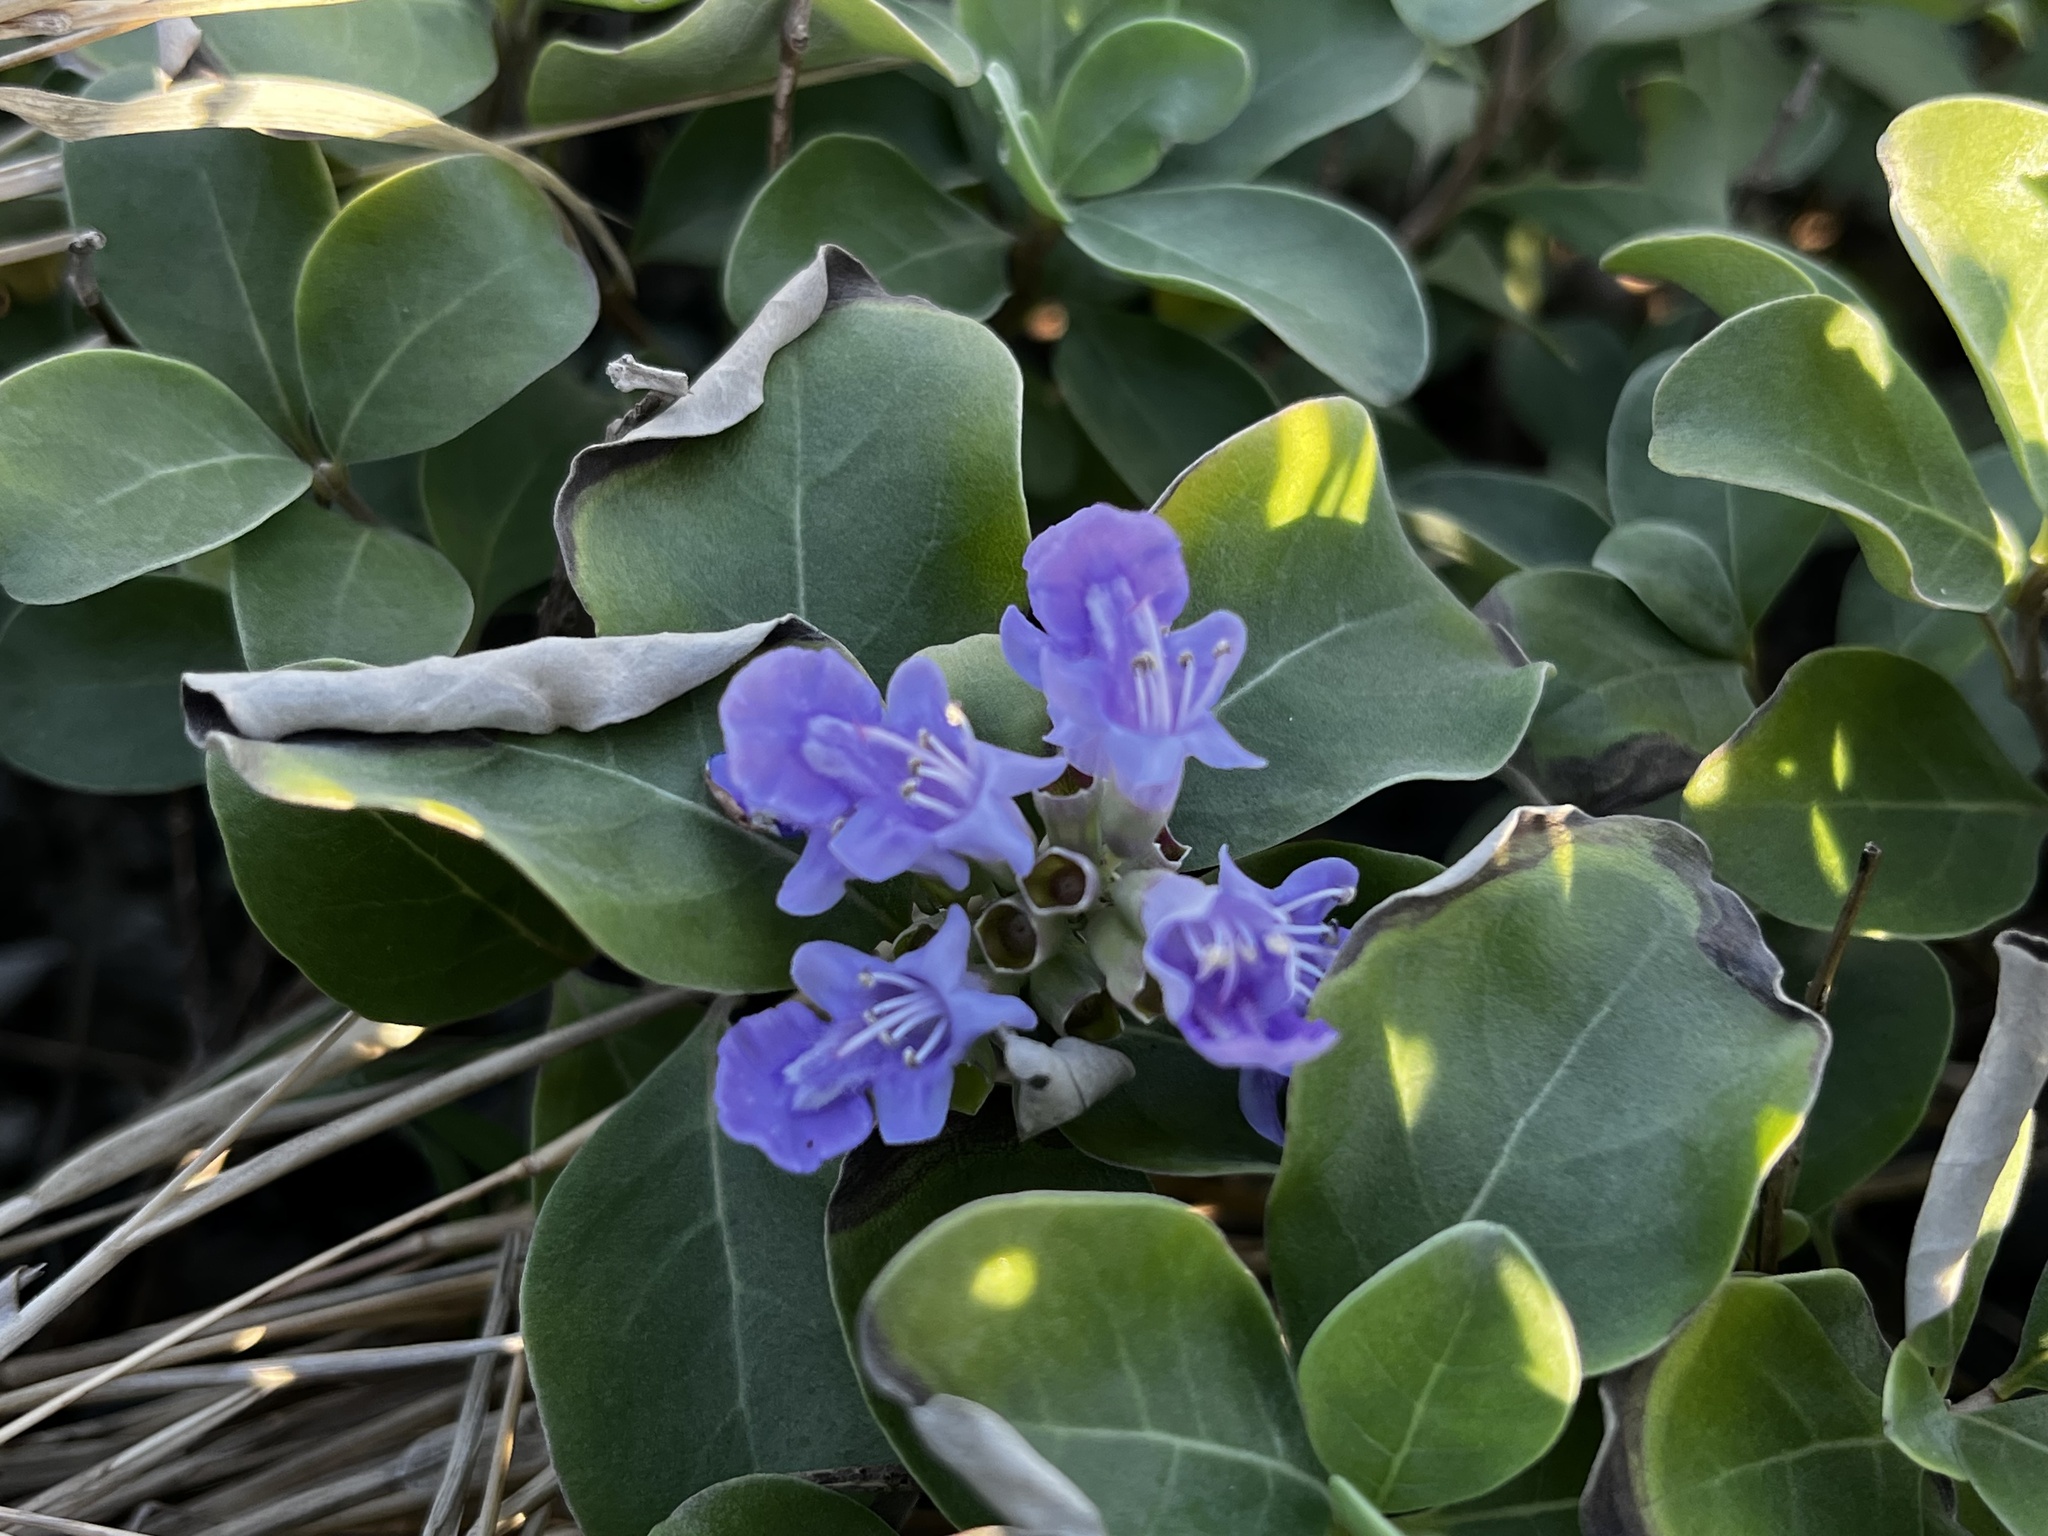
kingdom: Plantae
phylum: Tracheophyta
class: Magnoliopsida
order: Lamiales
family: Lamiaceae
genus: Vitex
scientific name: Vitex rotundifolia
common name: Beach vitex
